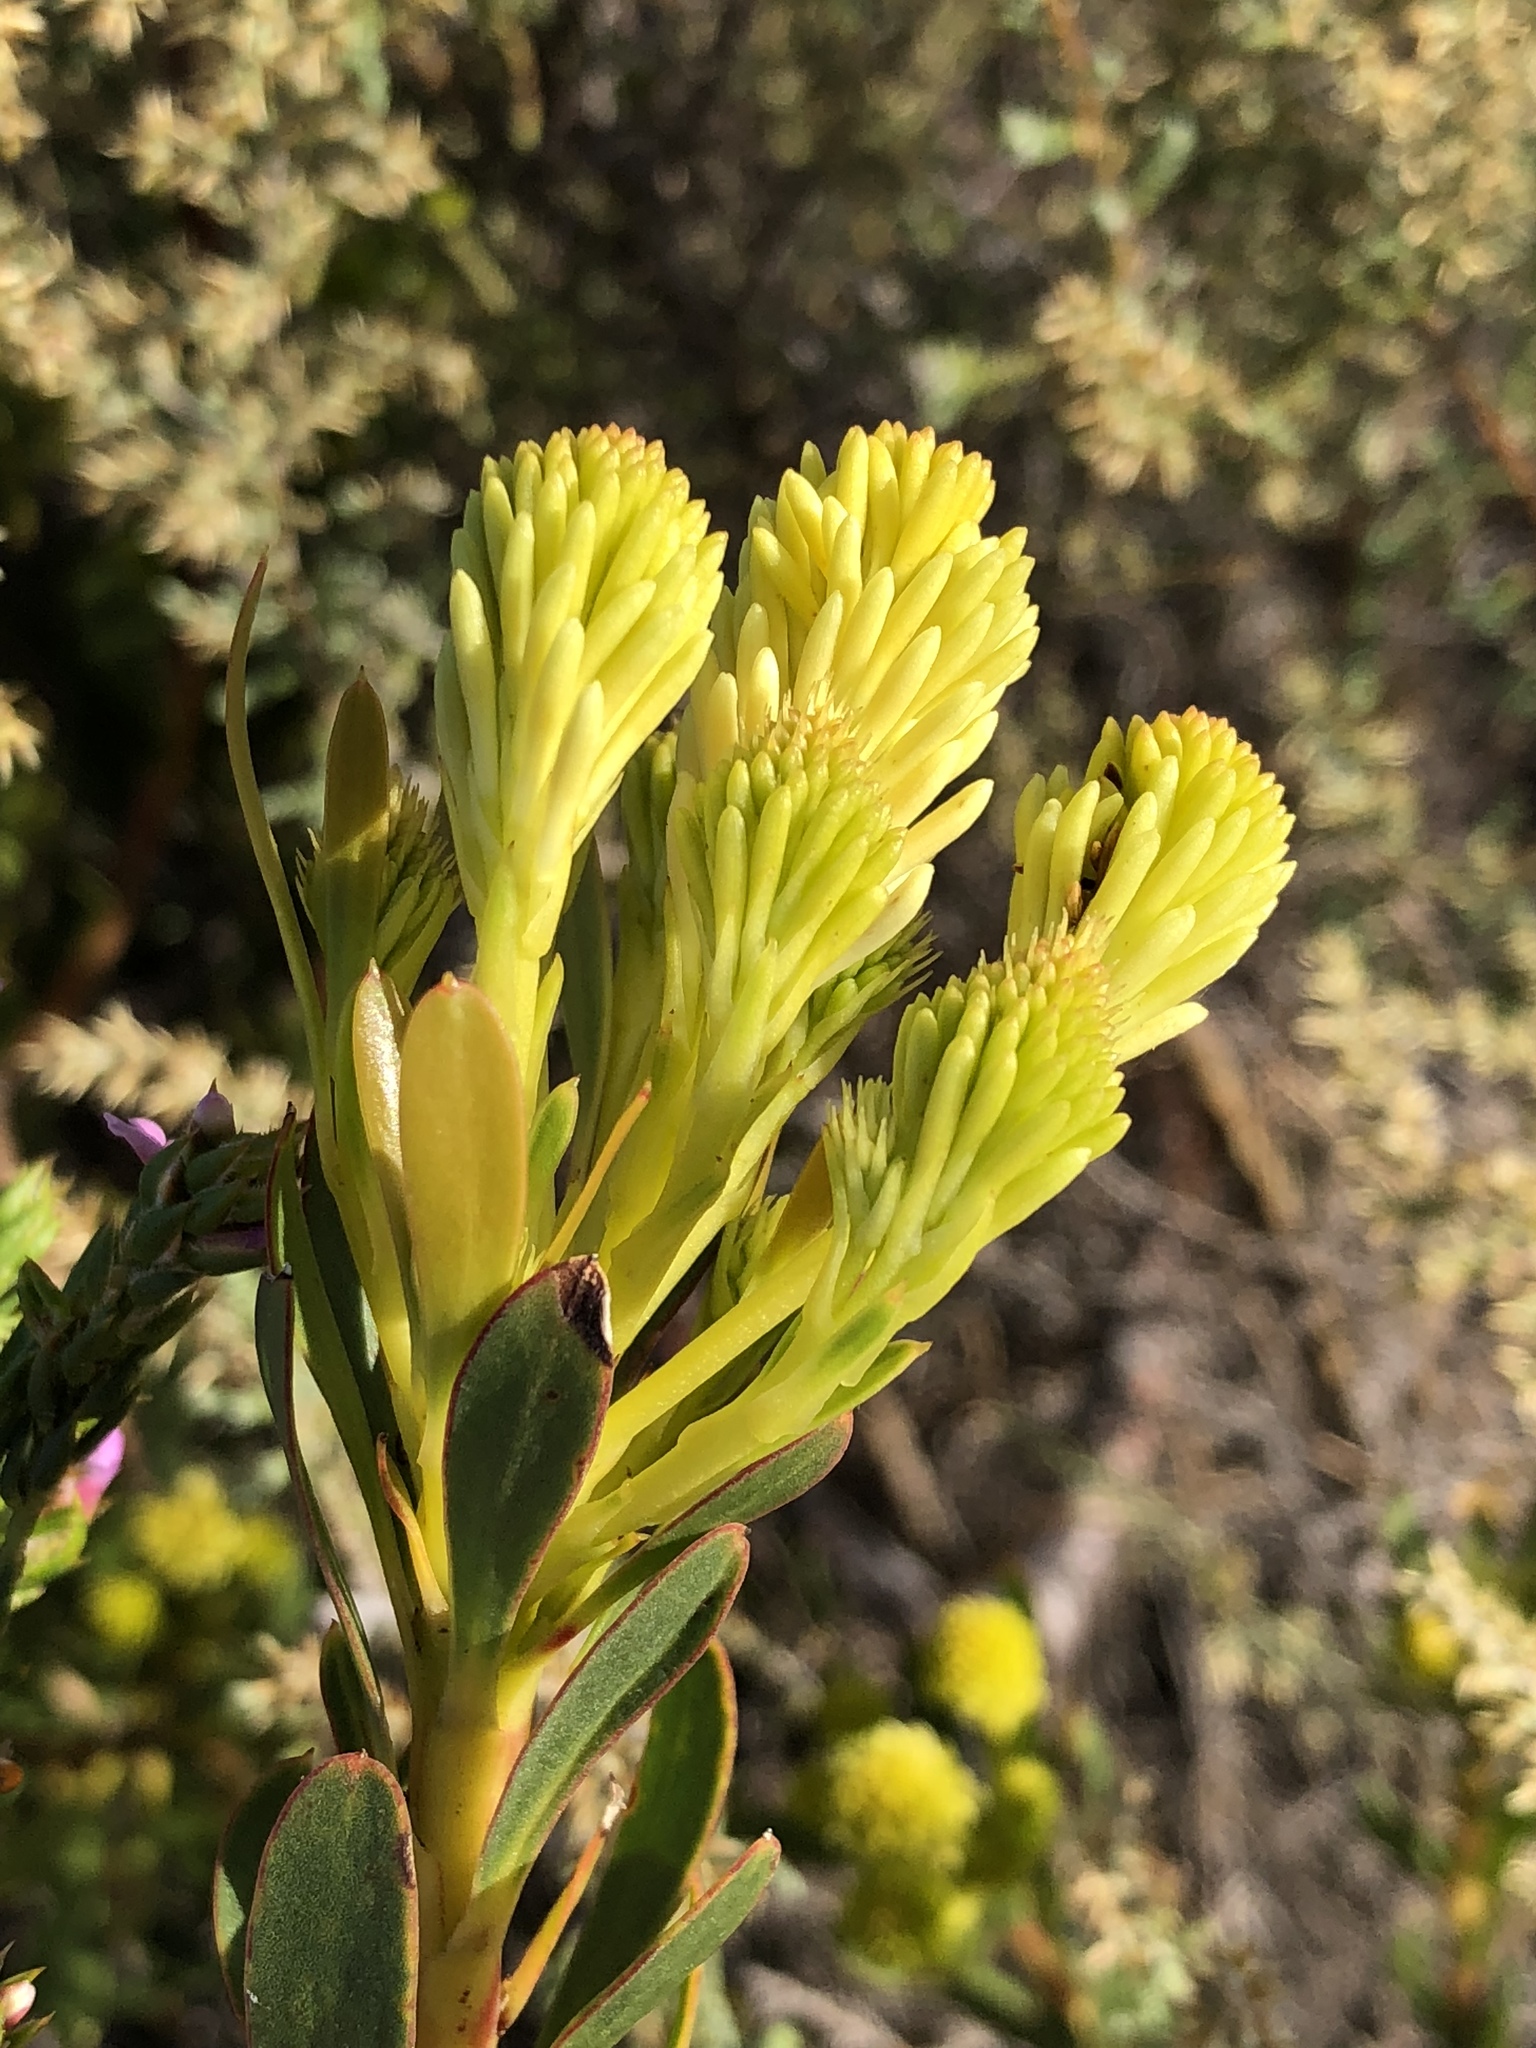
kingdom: Plantae
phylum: Tracheophyta
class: Magnoliopsida
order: Proteales
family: Proteaceae
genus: Aulax
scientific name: Aulax umbellata
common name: Broad-leaf featherbush
